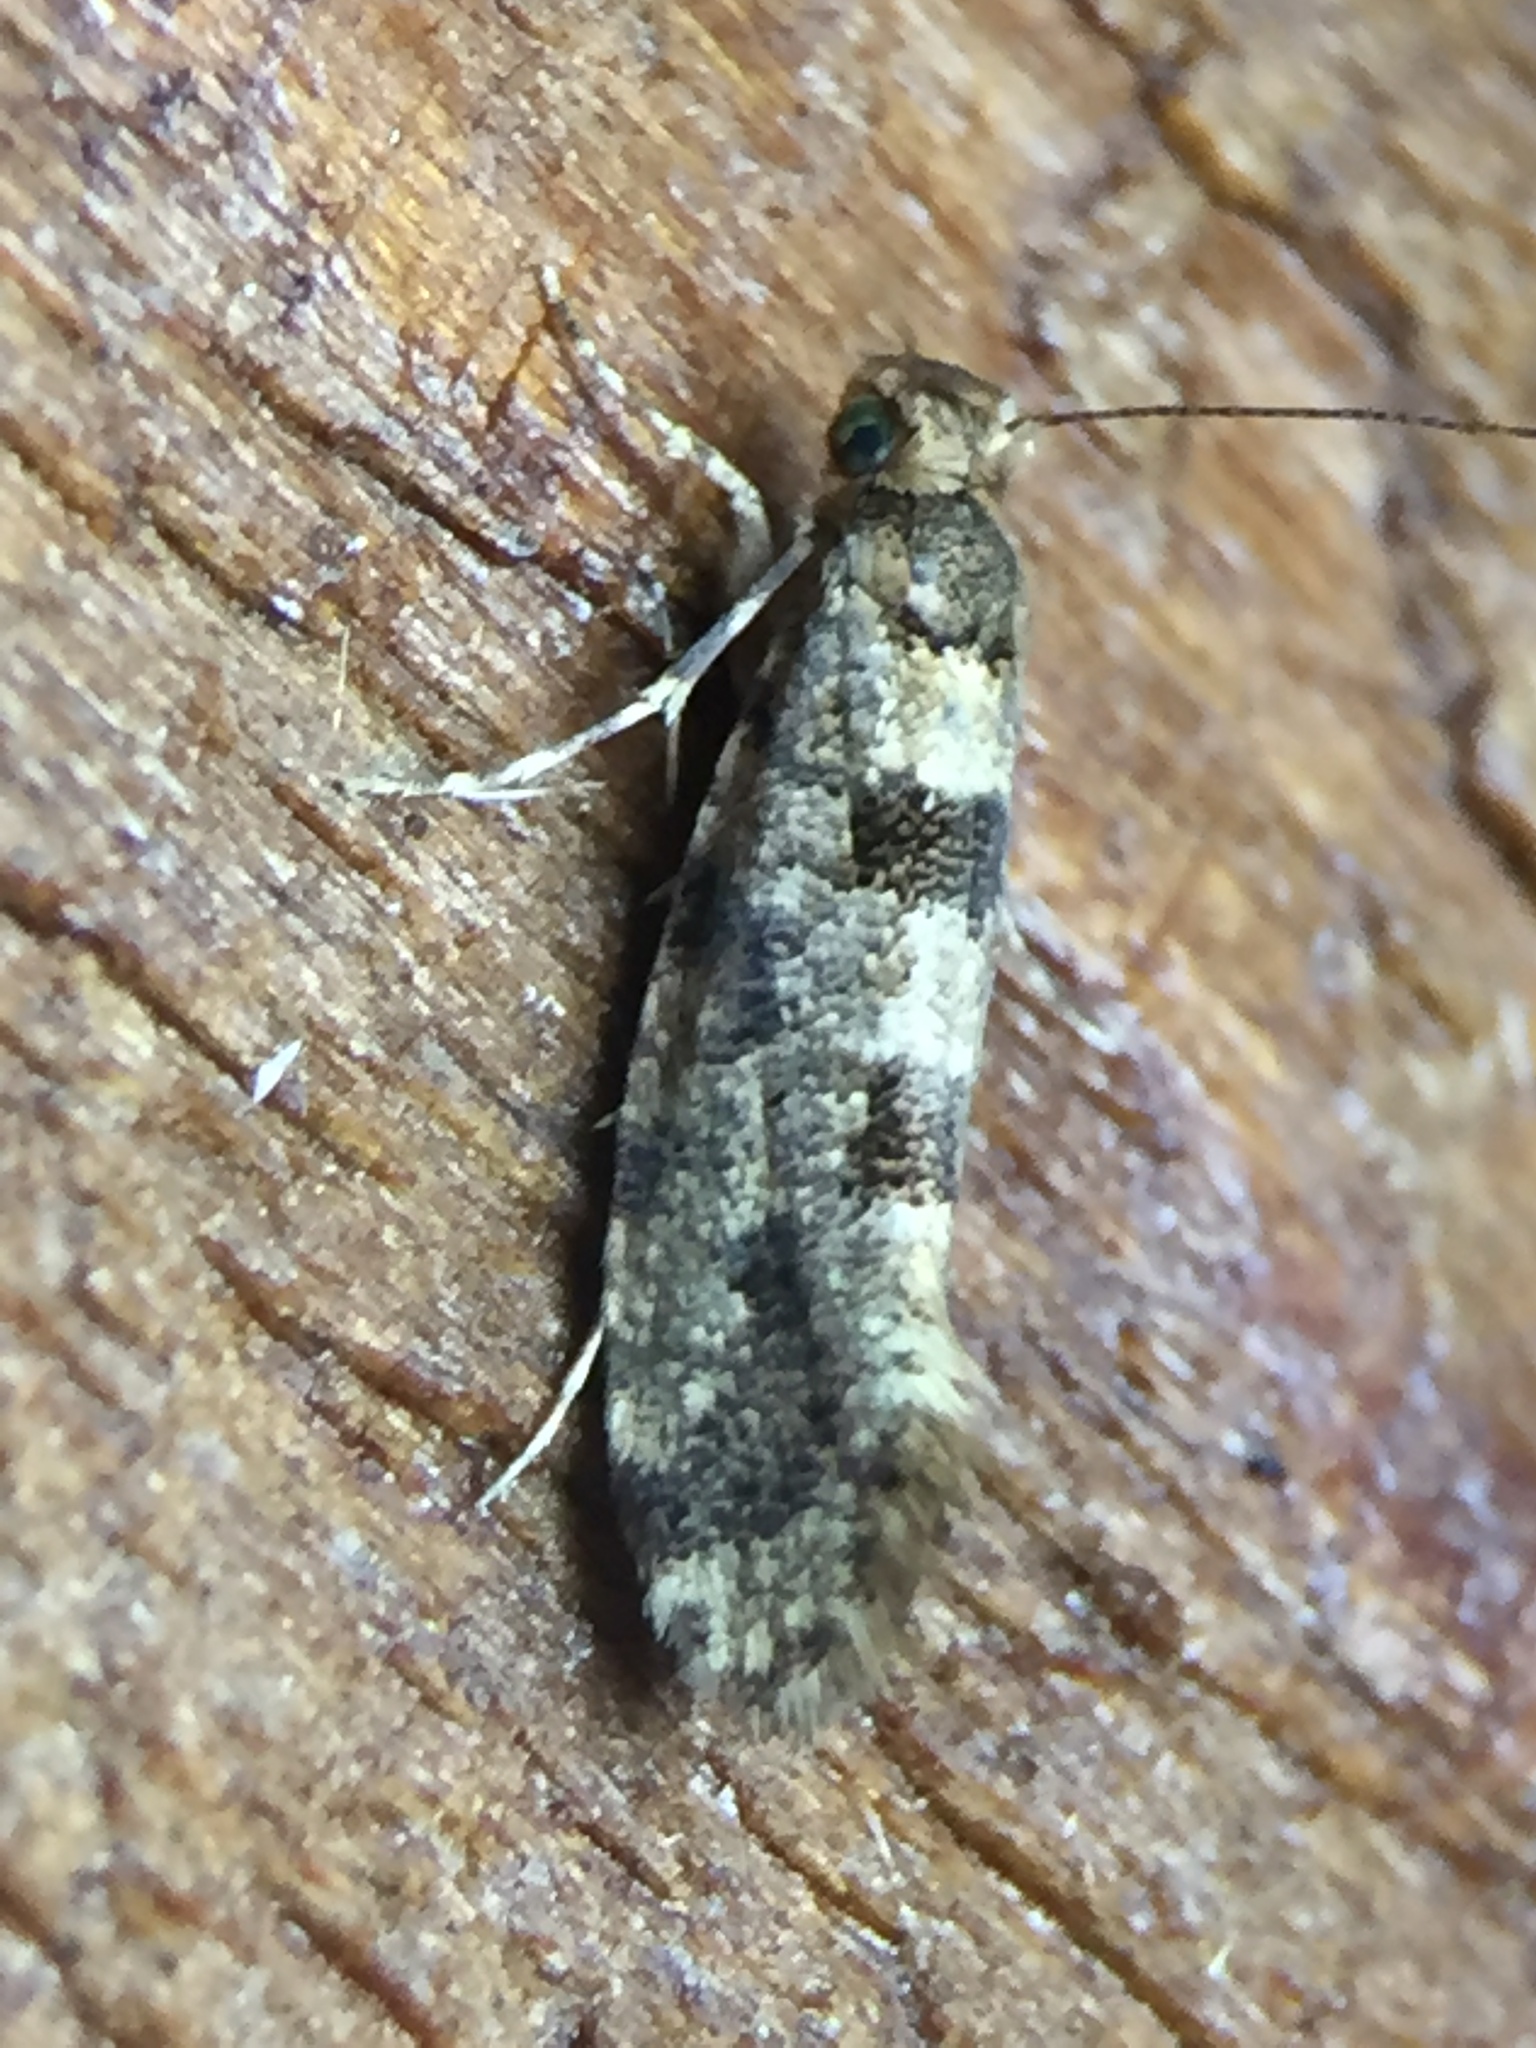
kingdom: Animalia
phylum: Arthropoda
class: Insecta
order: Lepidoptera
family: Tineidae
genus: Parochmastis
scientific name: Parochmastis hilderi
